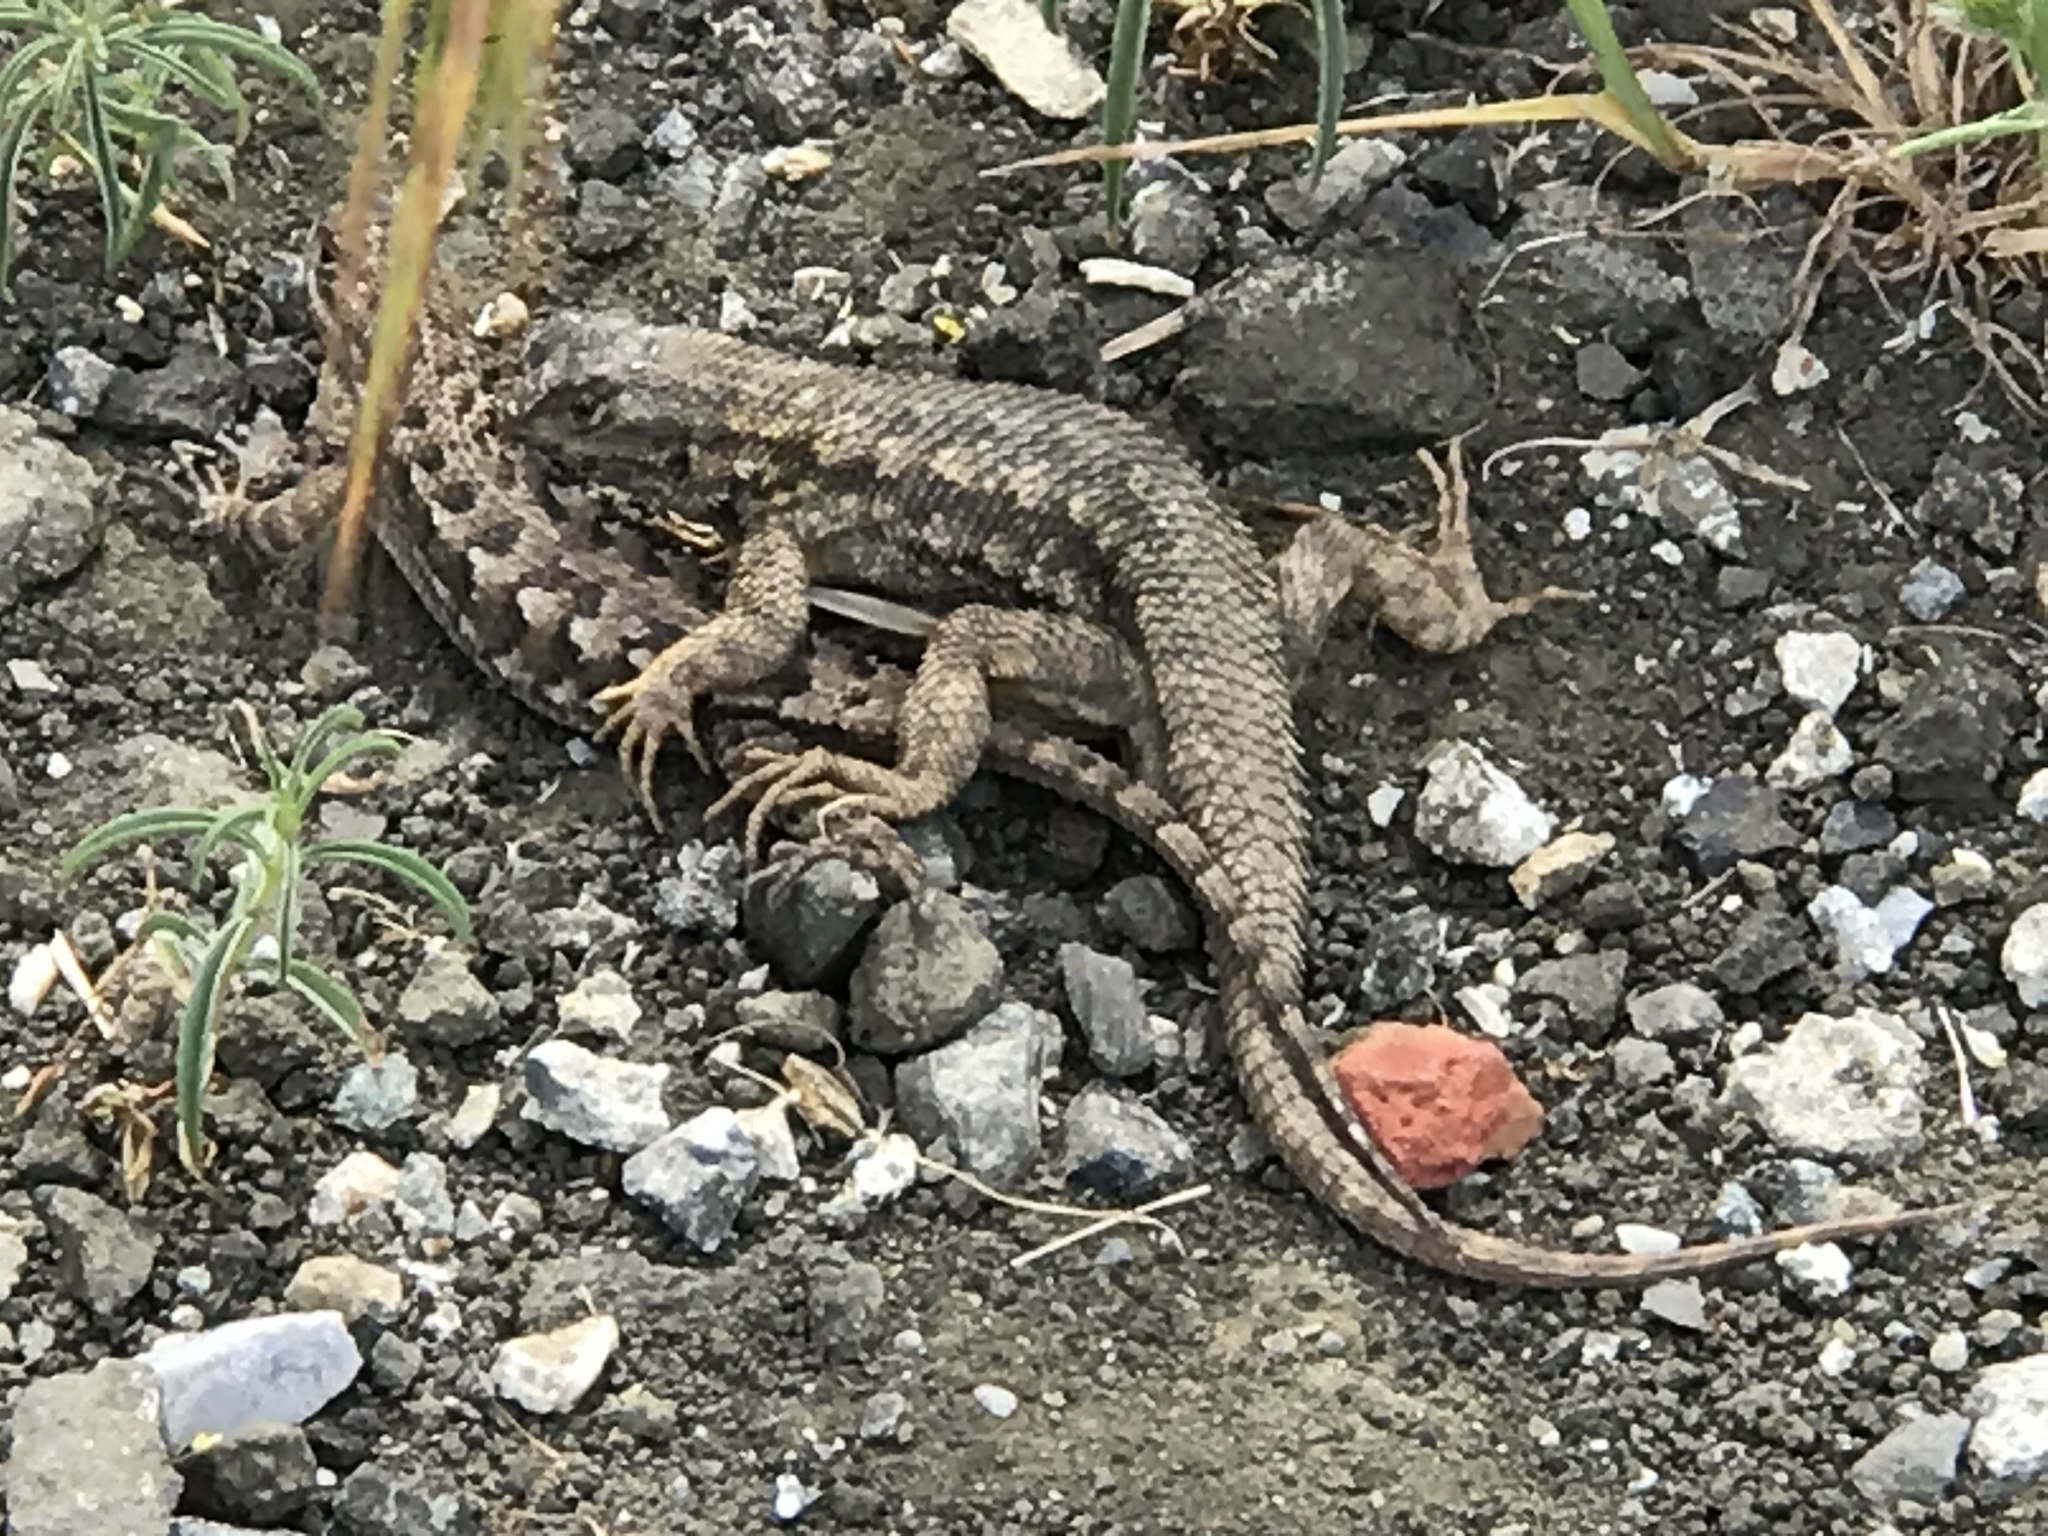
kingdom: Animalia
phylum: Chordata
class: Squamata
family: Phrynosomatidae
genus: Sceloporus
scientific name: Sceloporus occidentalis
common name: Western fence lizard
